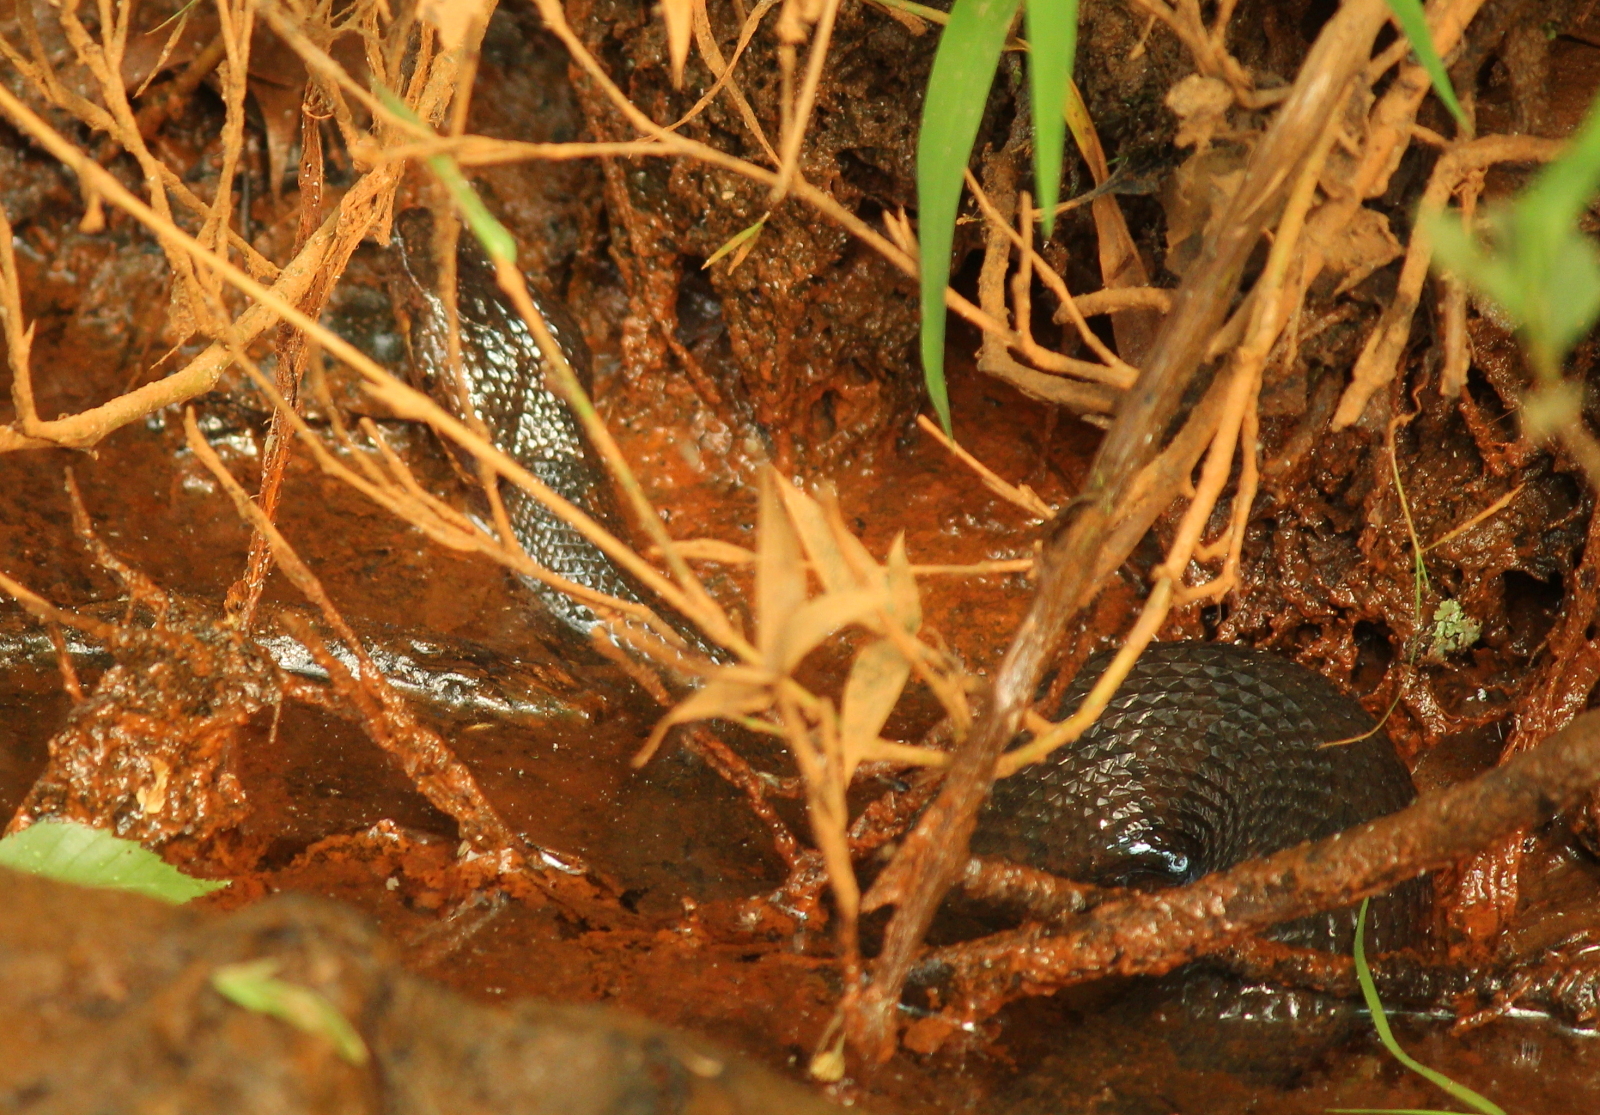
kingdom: Animalia
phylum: Chordata
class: Squamata
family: Viperidae
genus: Agkistrodon
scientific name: Agkistrodon piscivorus
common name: Cottonmouth
